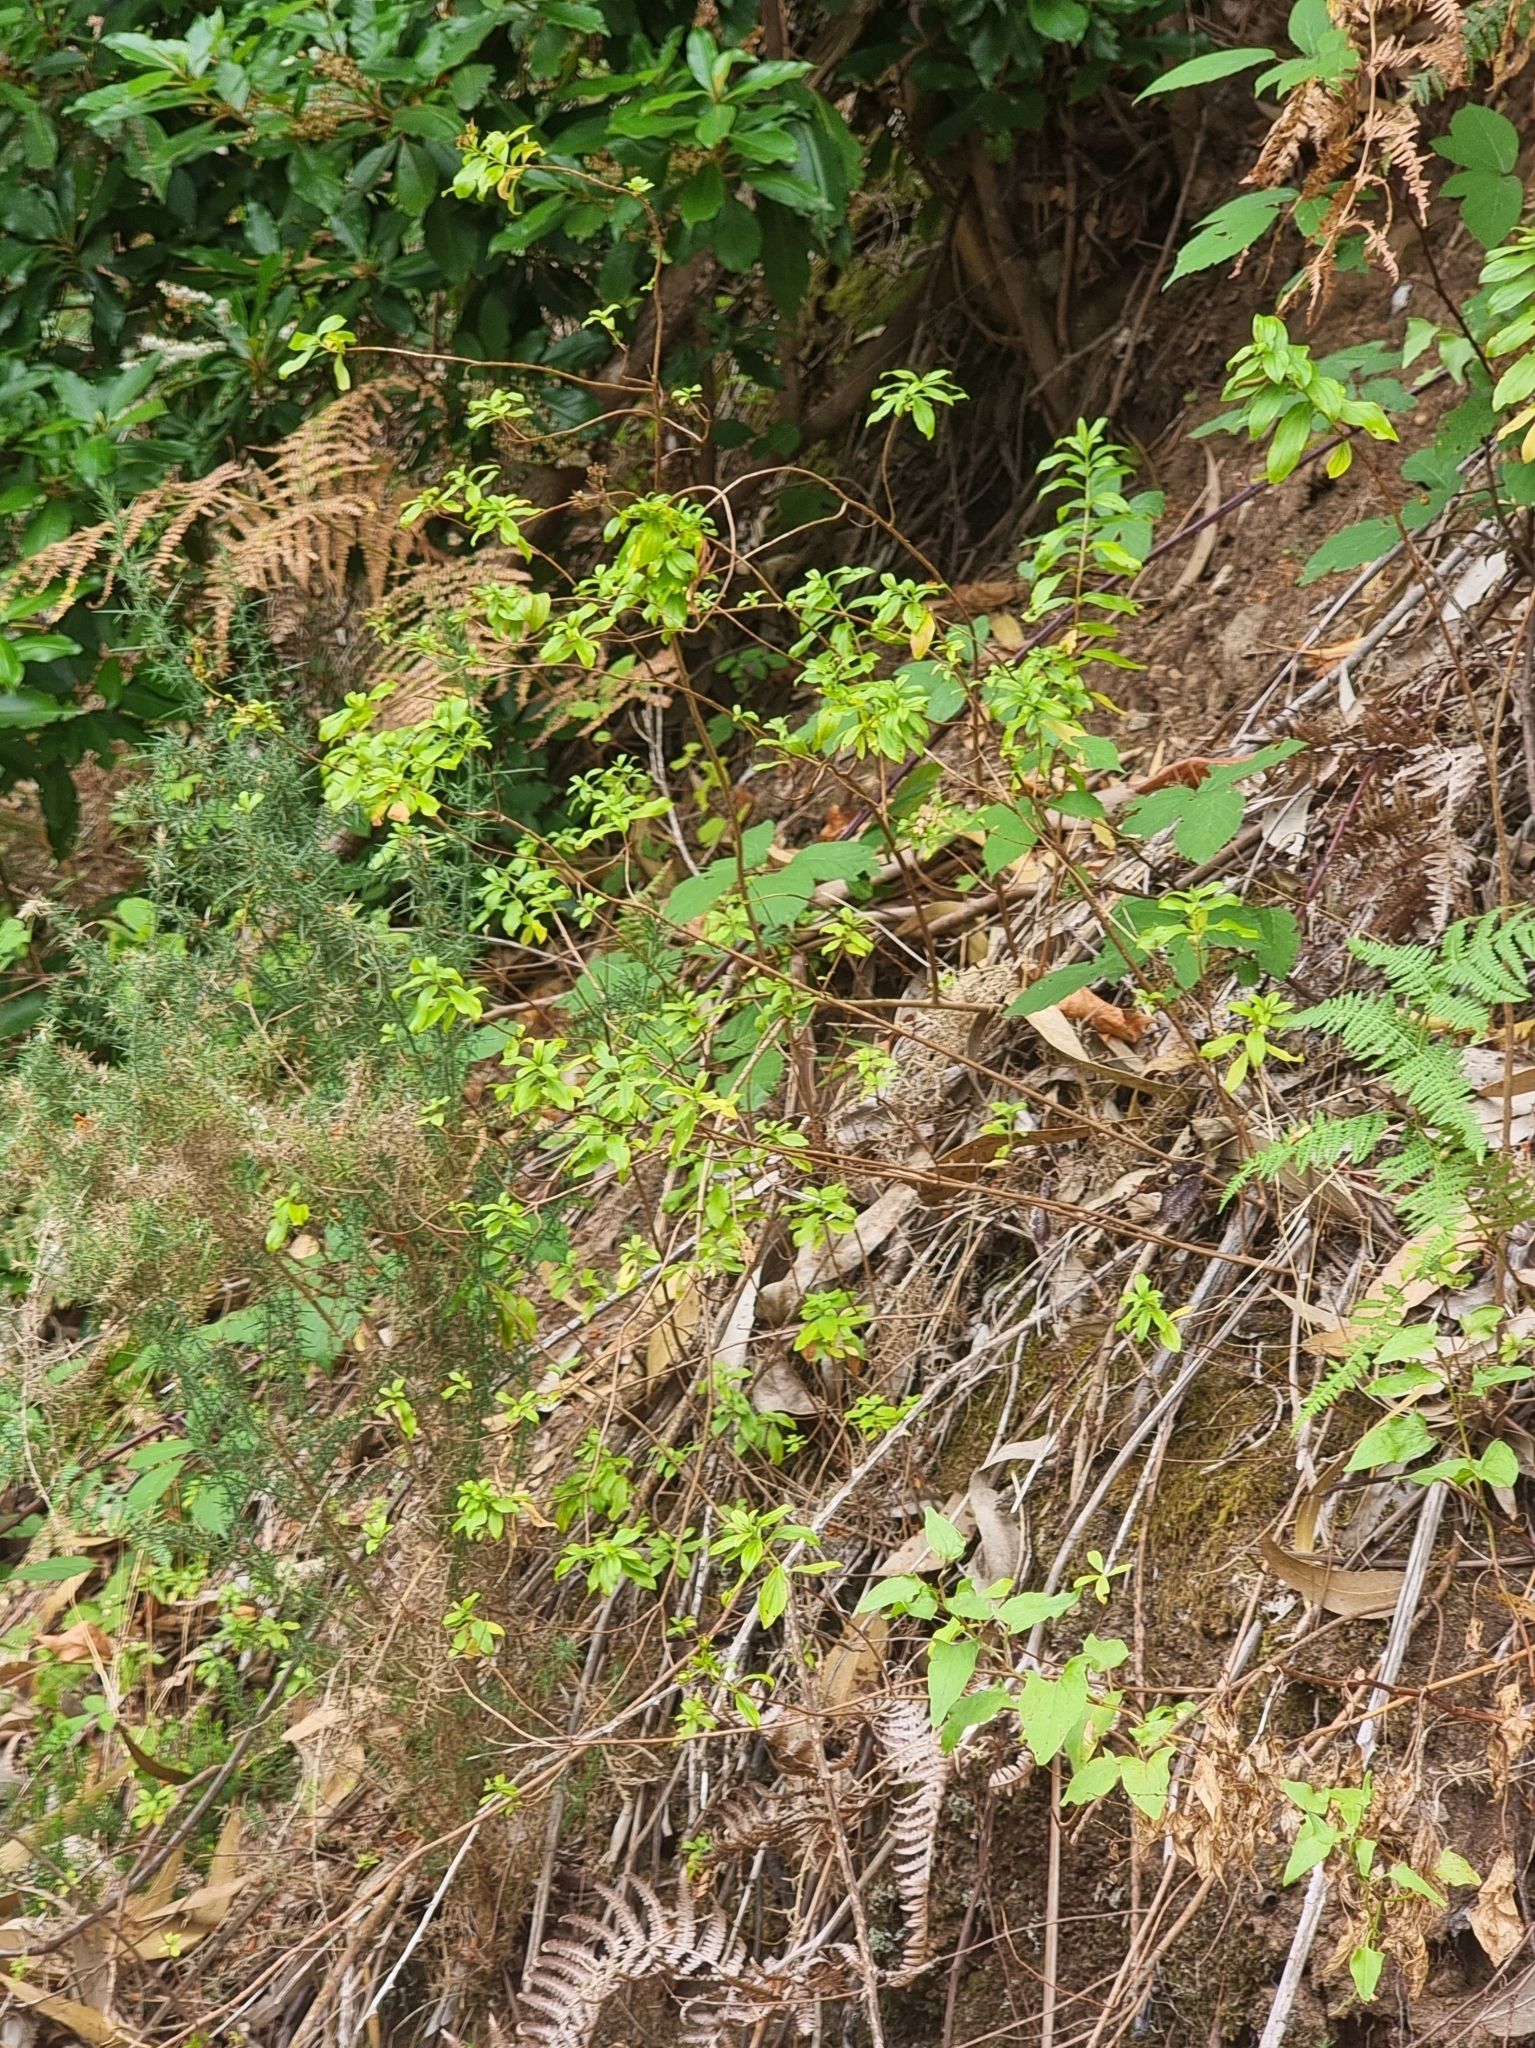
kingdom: Plantae
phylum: Tracheophyta
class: Magnoliopsida
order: Malpighiales
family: Hypericaceae
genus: Hypericum
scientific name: Hypericum glandulosum
